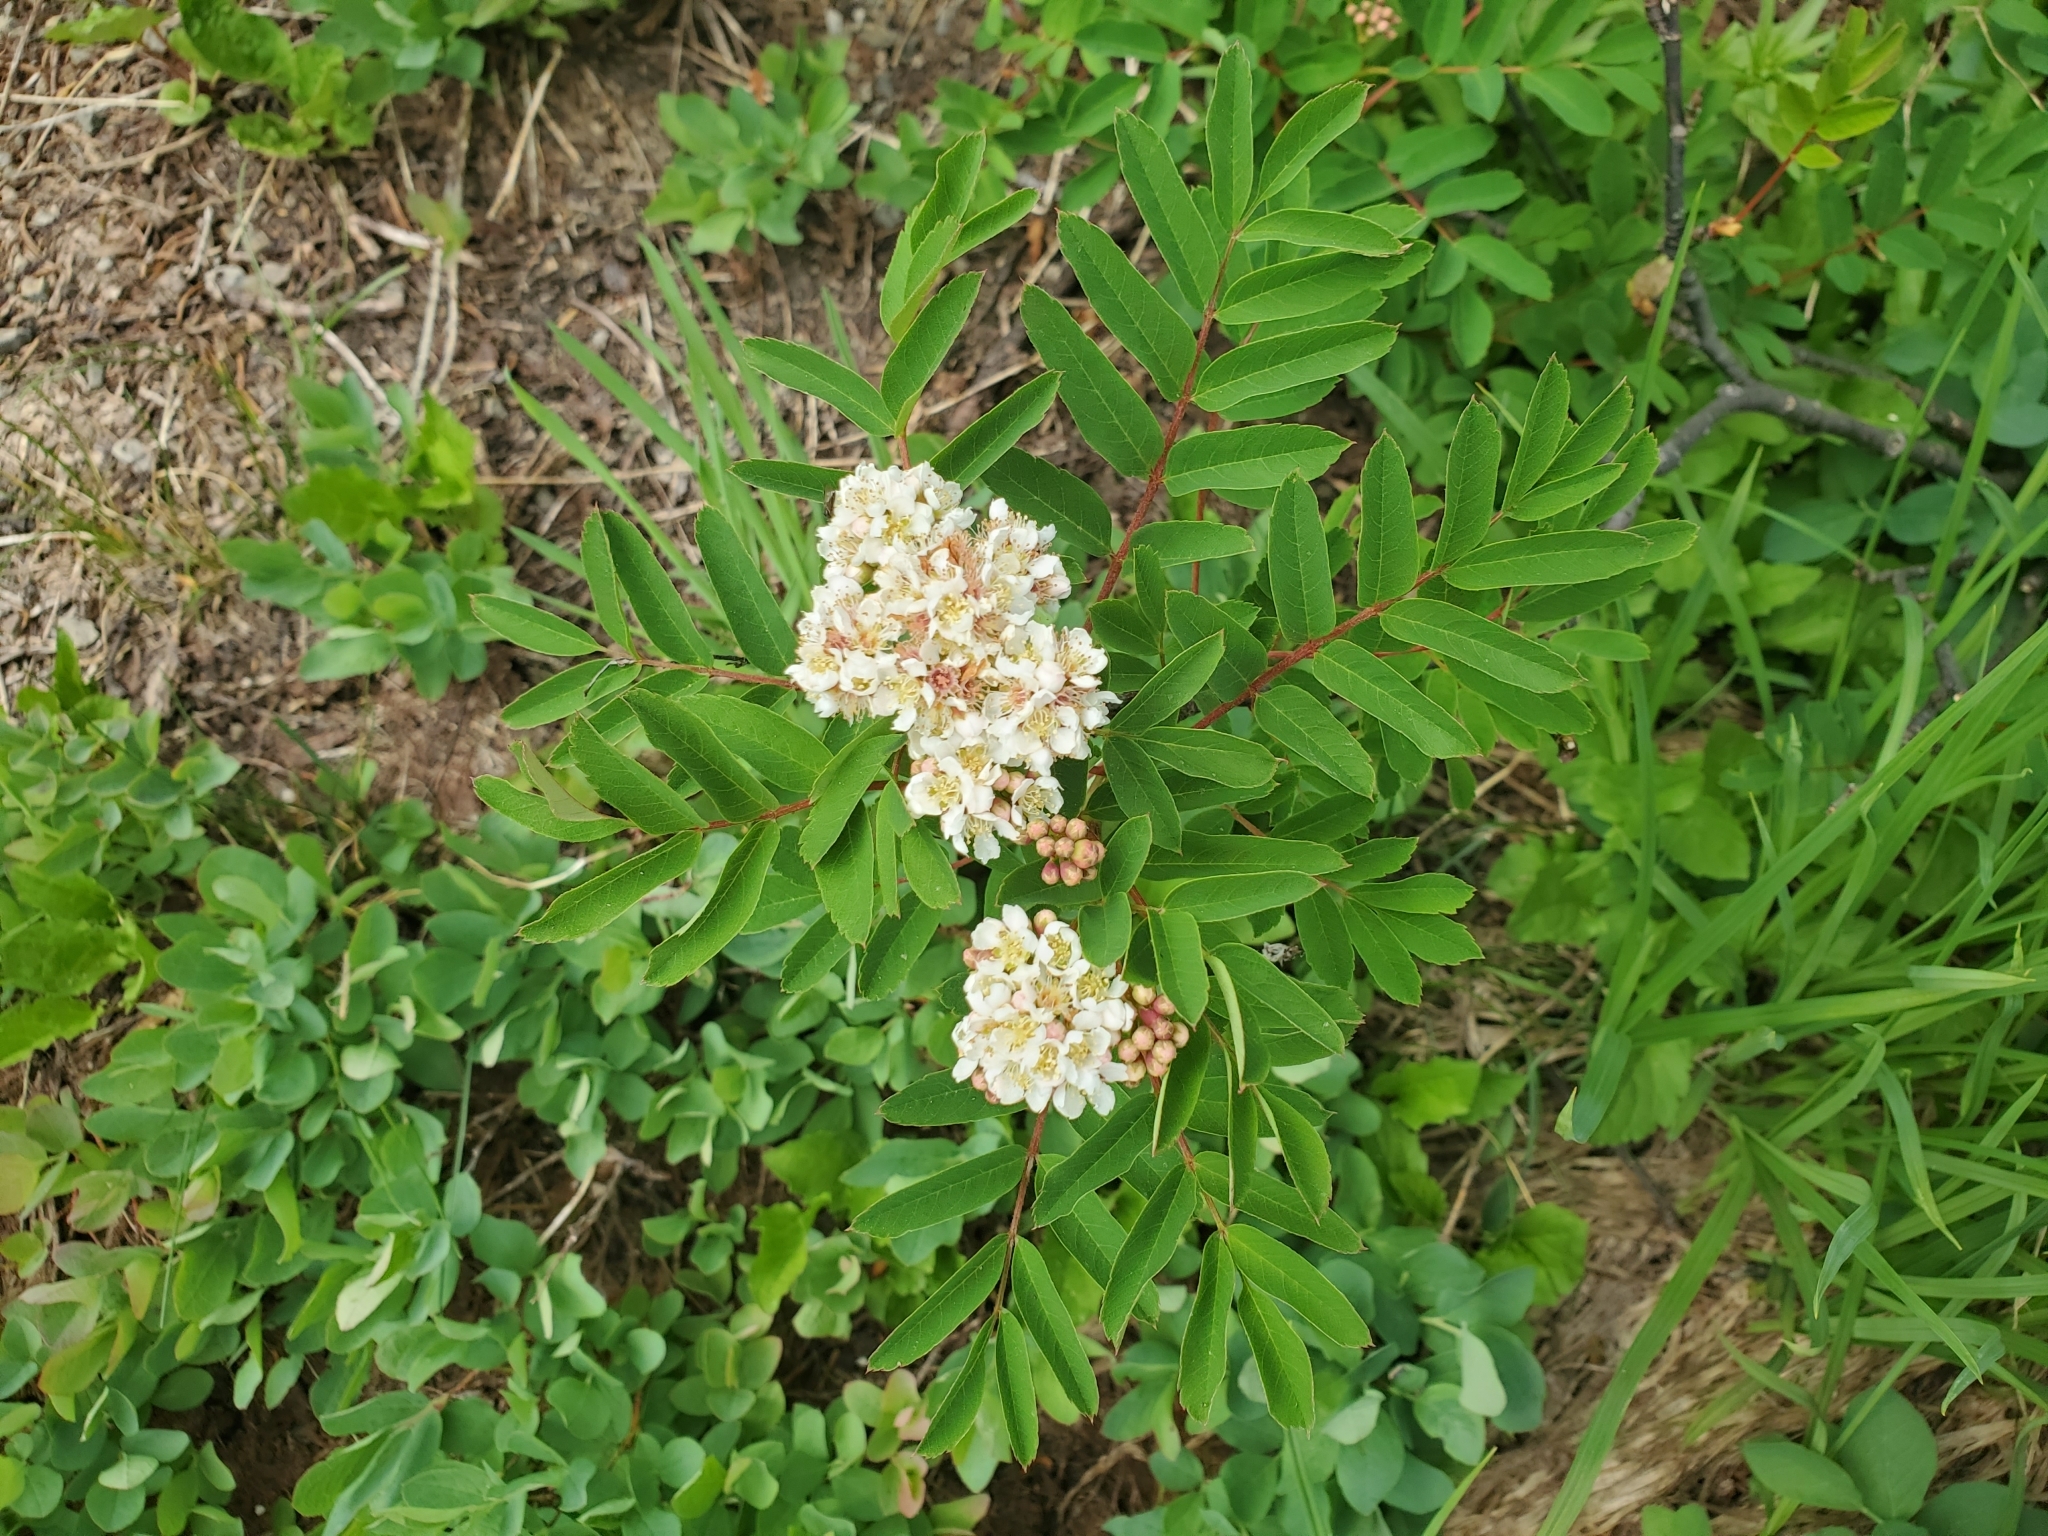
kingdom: Plantae
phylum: Tracheophyta
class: Magnoliopsida
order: Rosales
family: Rosaceae
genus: Sorbus
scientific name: Sorbus sitchensis
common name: Sitka mountain-ash
